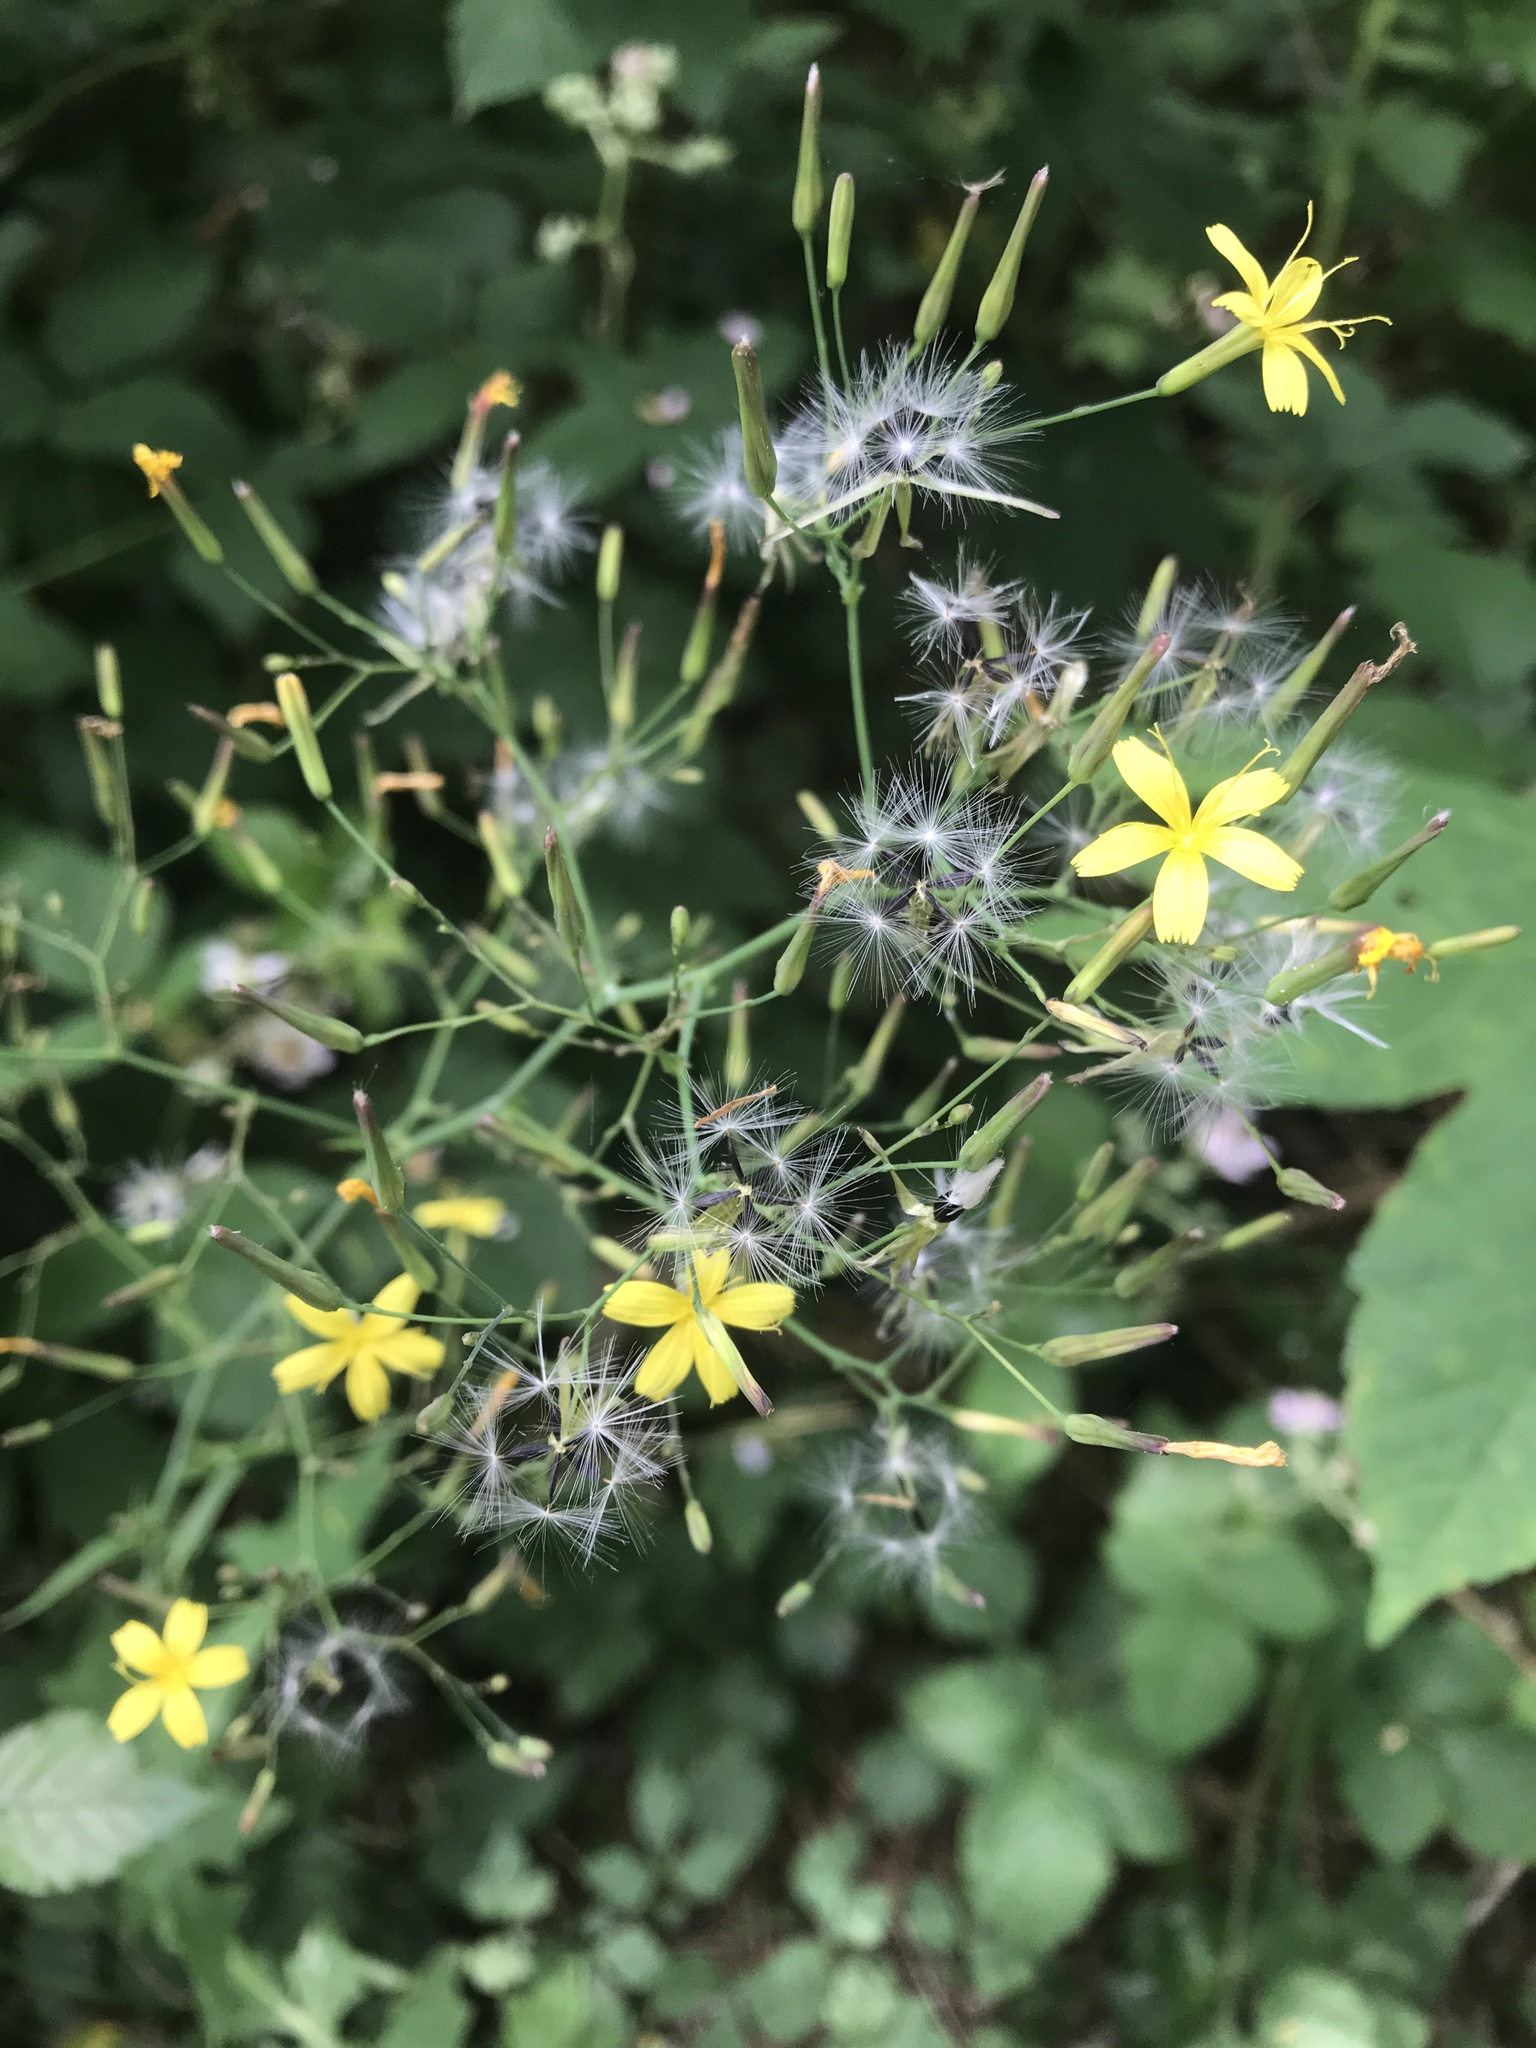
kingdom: Plantae
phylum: Tracheophyta
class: Magnoliopsida
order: Asterales
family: Asteraceae
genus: Mycelis
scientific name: Mycelis muralis
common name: Wall lettuce
